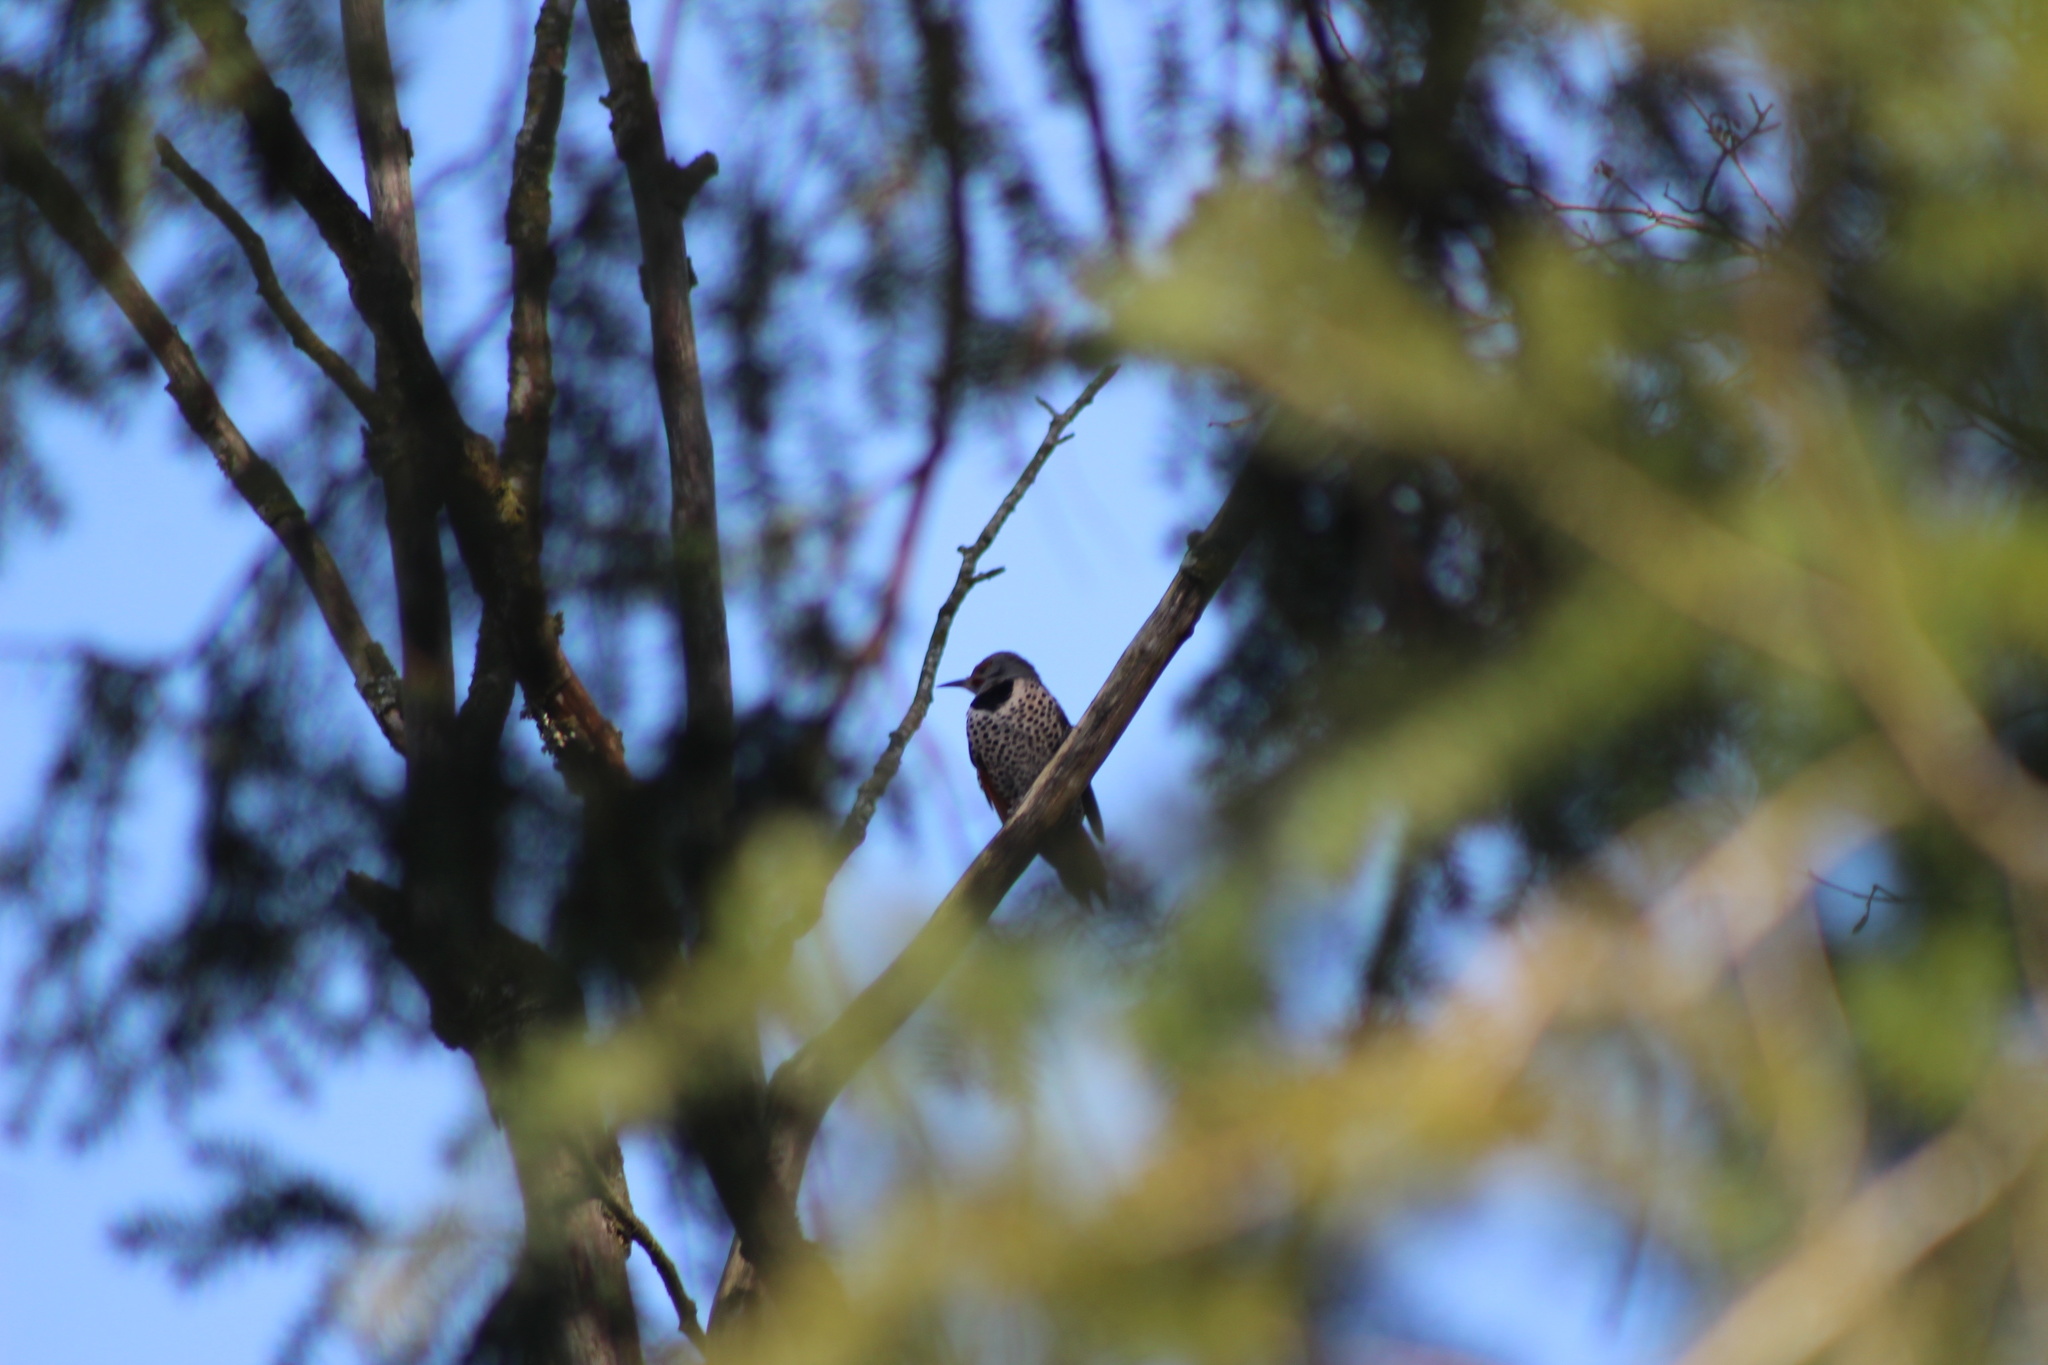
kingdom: Animalia
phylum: Chordata
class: Aves
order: Piciformes
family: Picidae
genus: Colaptes
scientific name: Colaptes auratus
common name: Northern flicker
